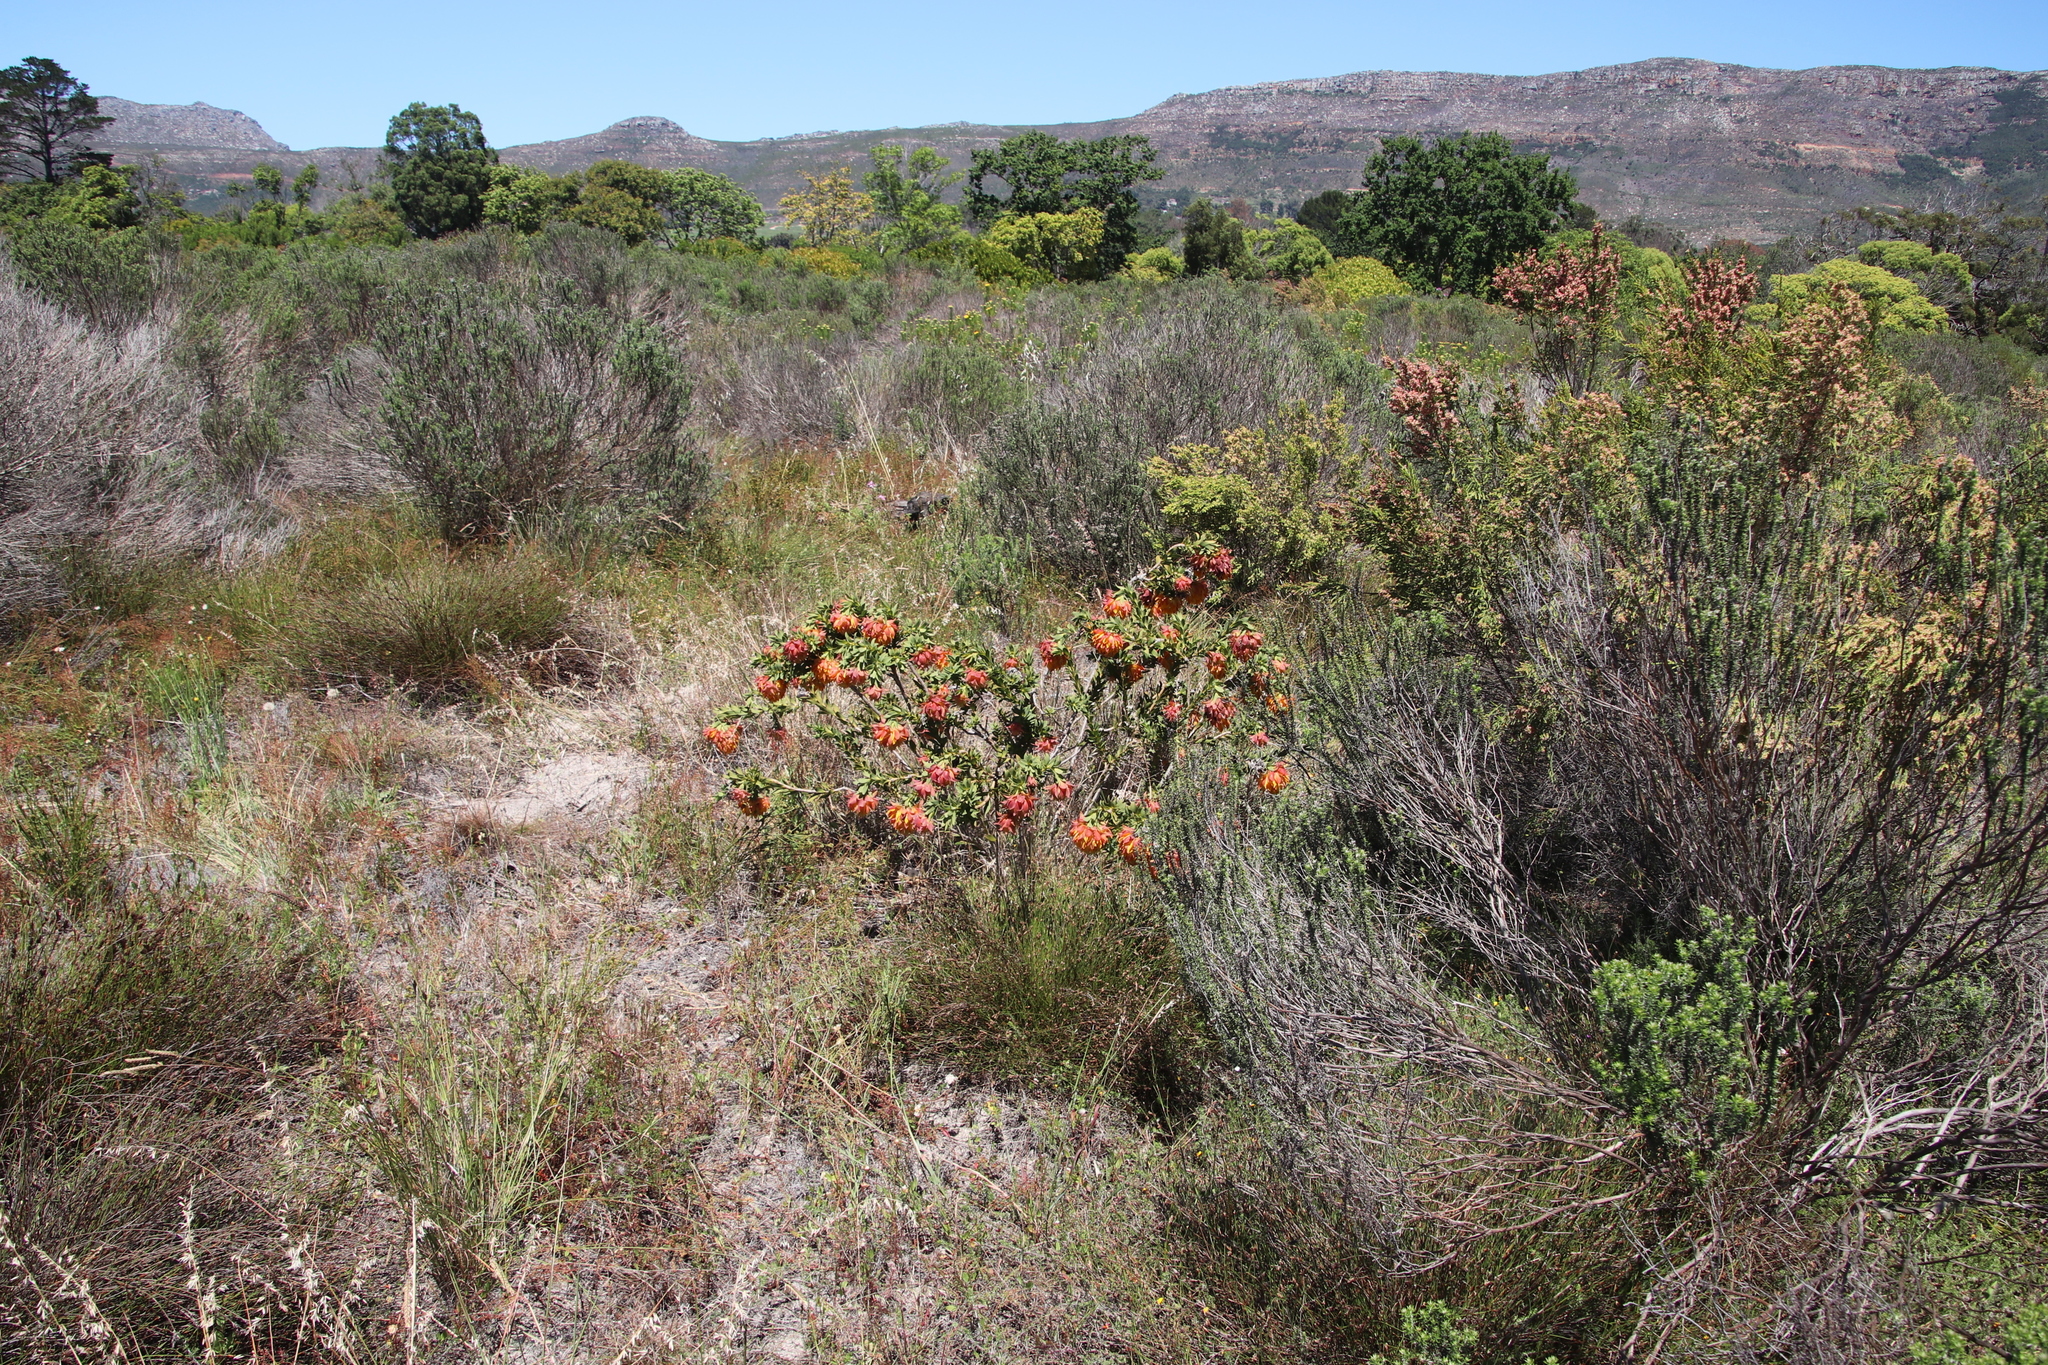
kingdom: Plantae
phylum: Tracheophyta
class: Magnoliopsida
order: Fabales
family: Fabaceae
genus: Liparia
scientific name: Liparia splendens
